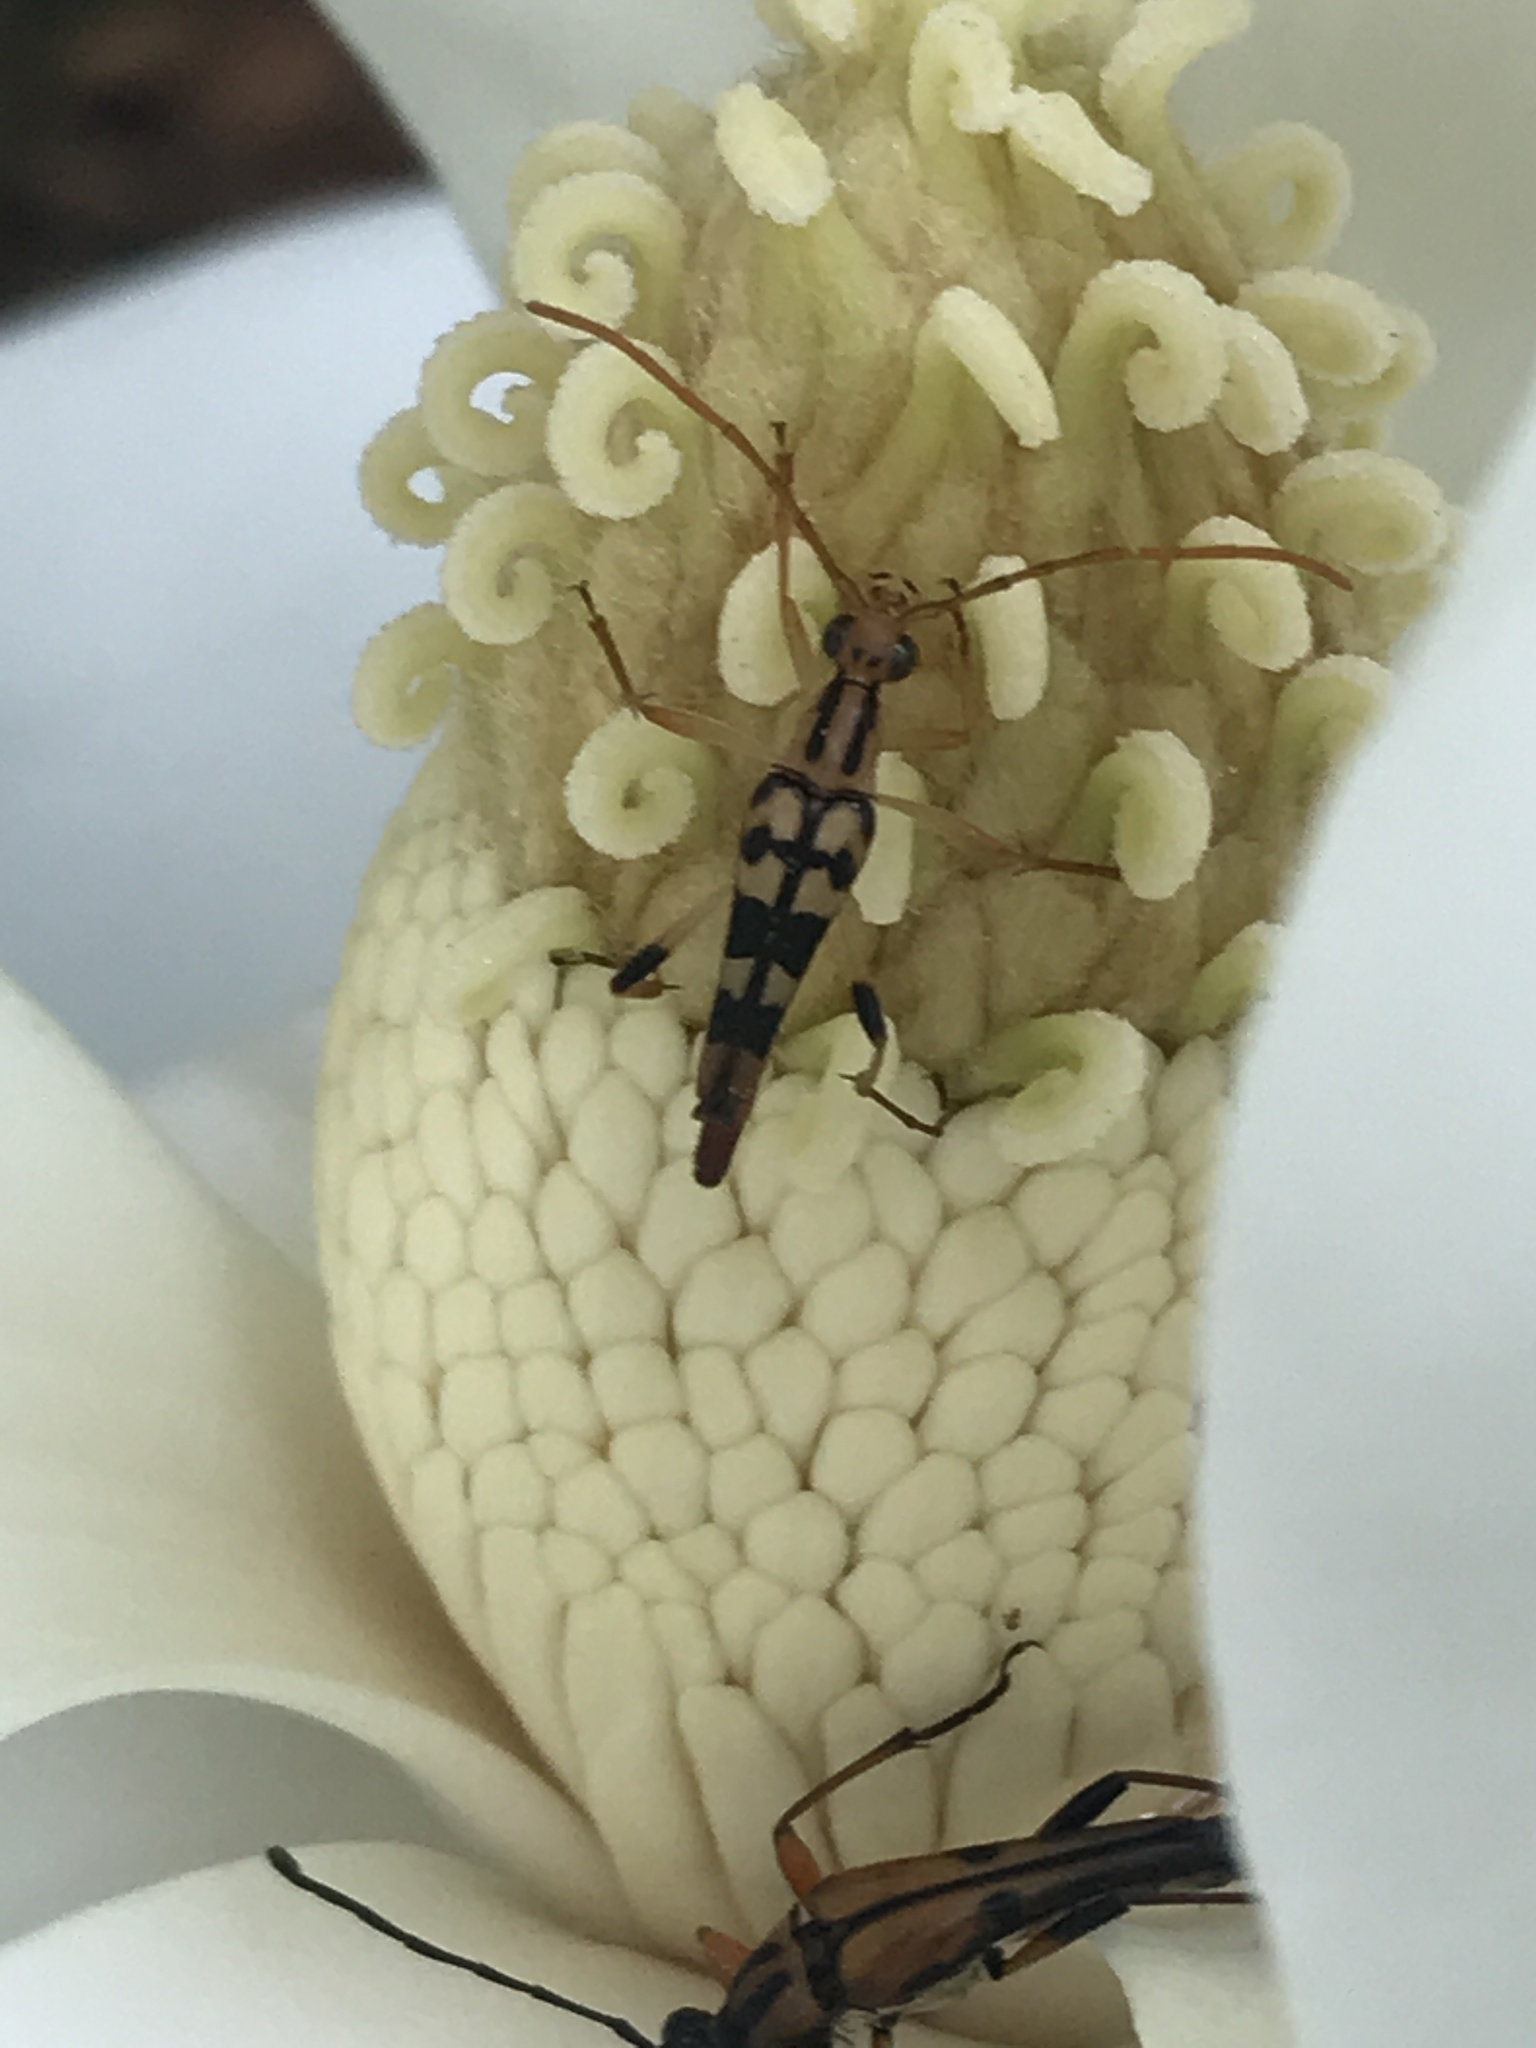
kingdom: Animalia
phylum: Arthropoda
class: Insecta
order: Coleoptera
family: Cerambycidae
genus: Strangalia
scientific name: Strangalia luteicornis
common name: Yellow-horned flower longhorn beetle
